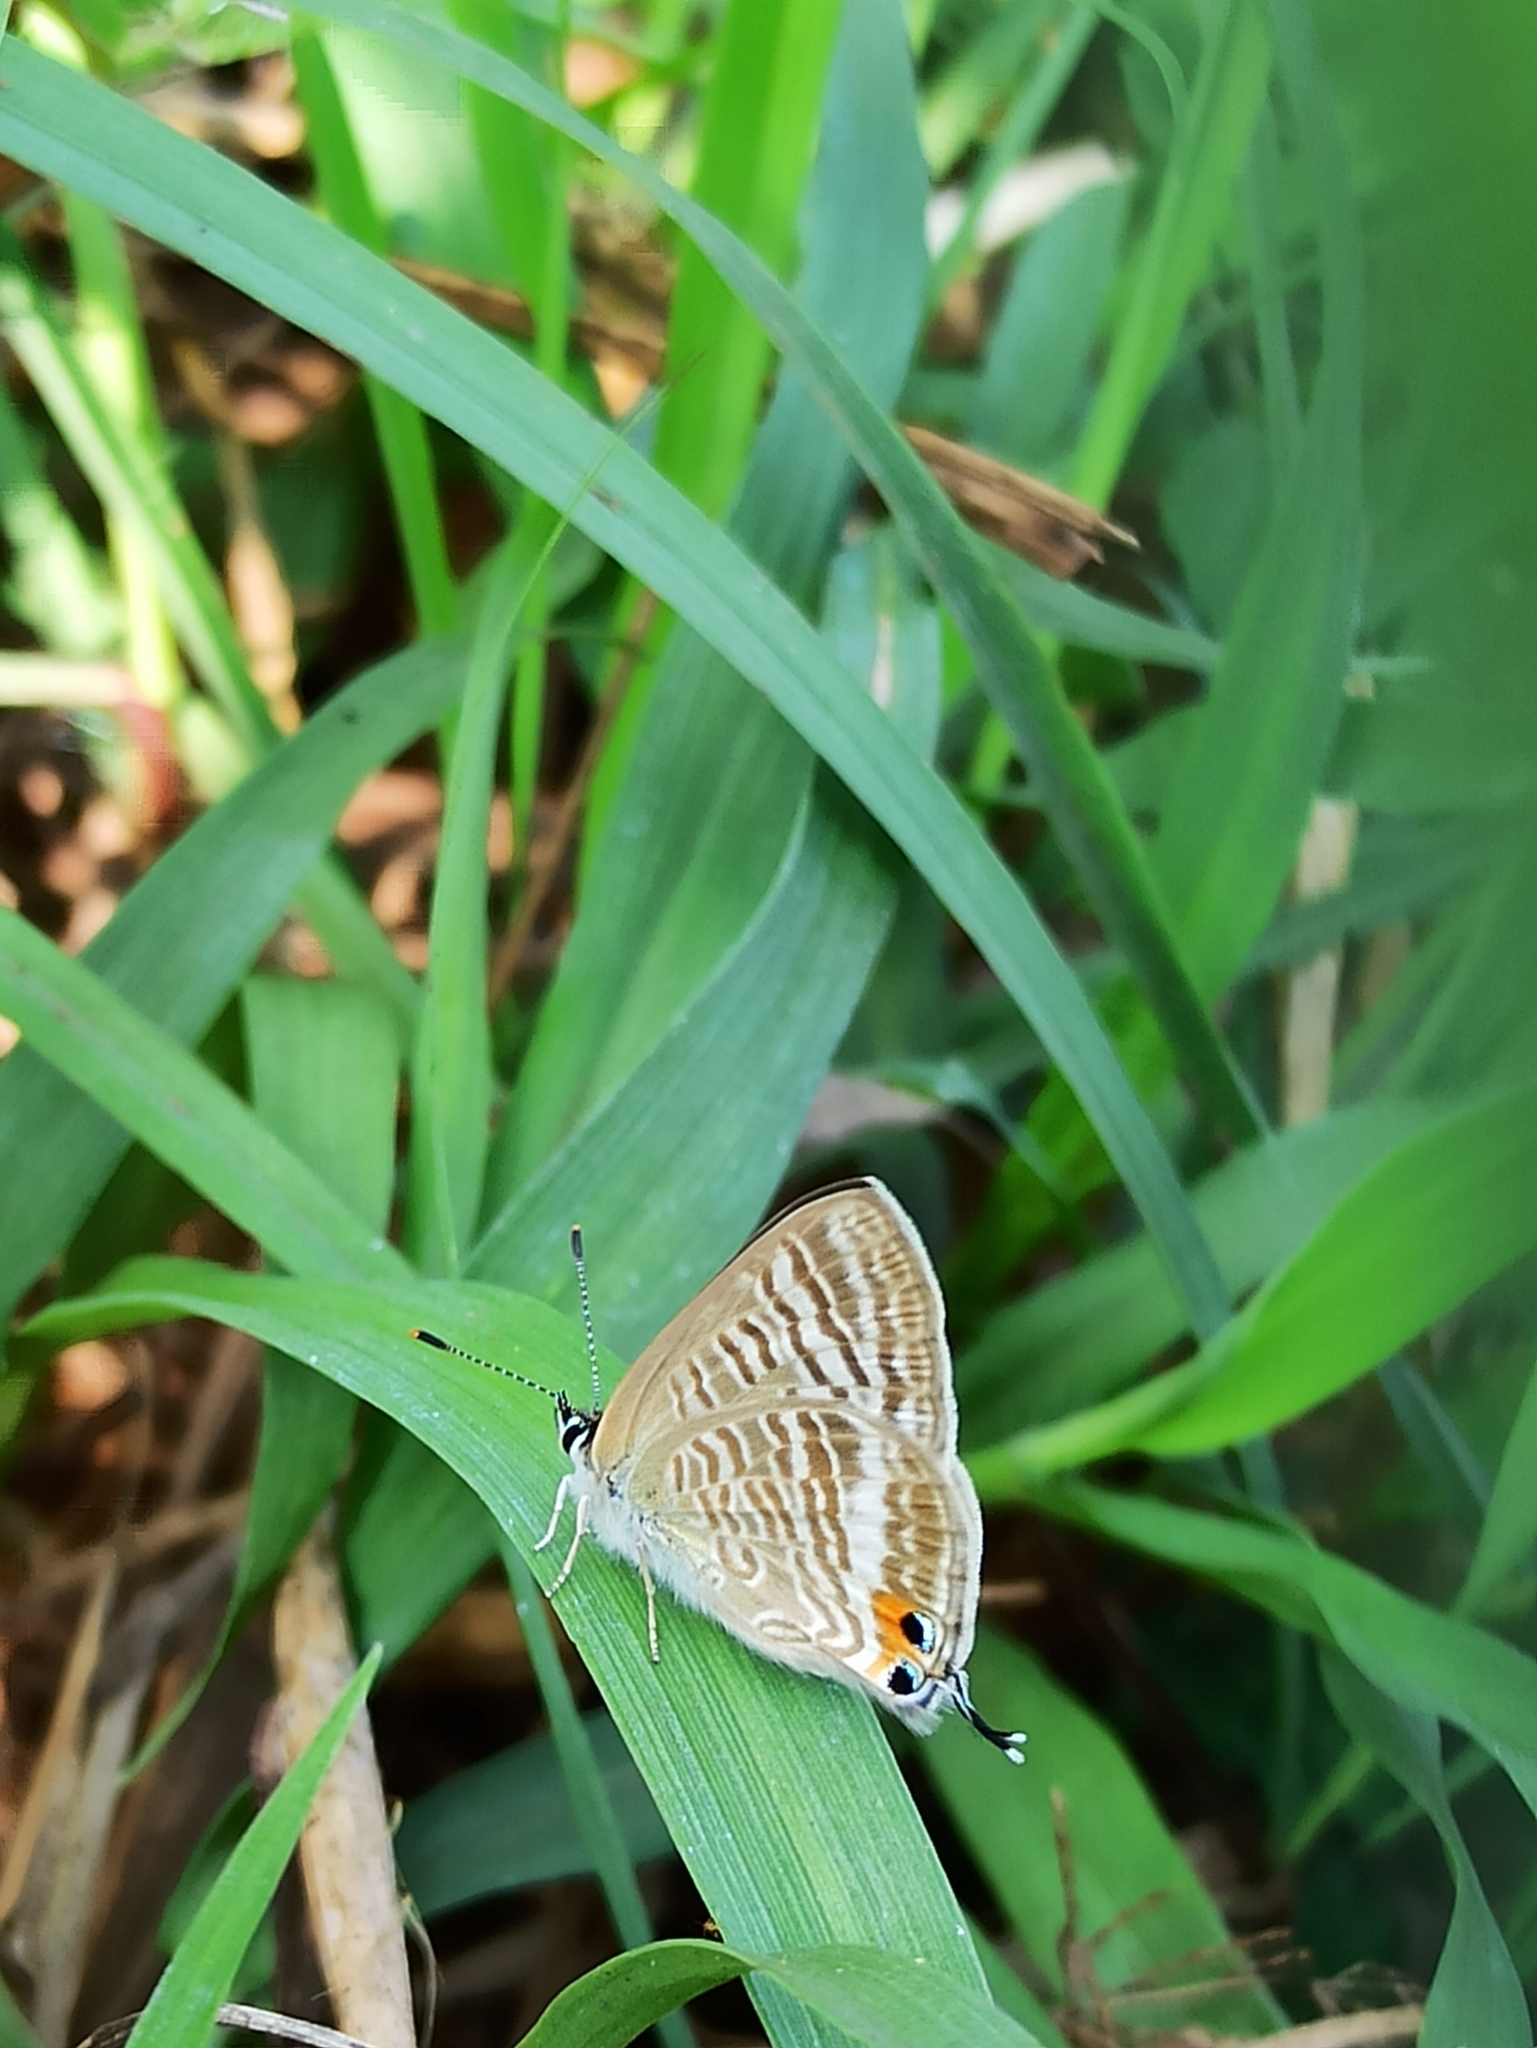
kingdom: Animalia
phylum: Arthropoda
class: Insecta
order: Lepidoptera
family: Lycaenidae
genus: Lampides
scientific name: Lampides boeticus
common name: Long-tailed blue
